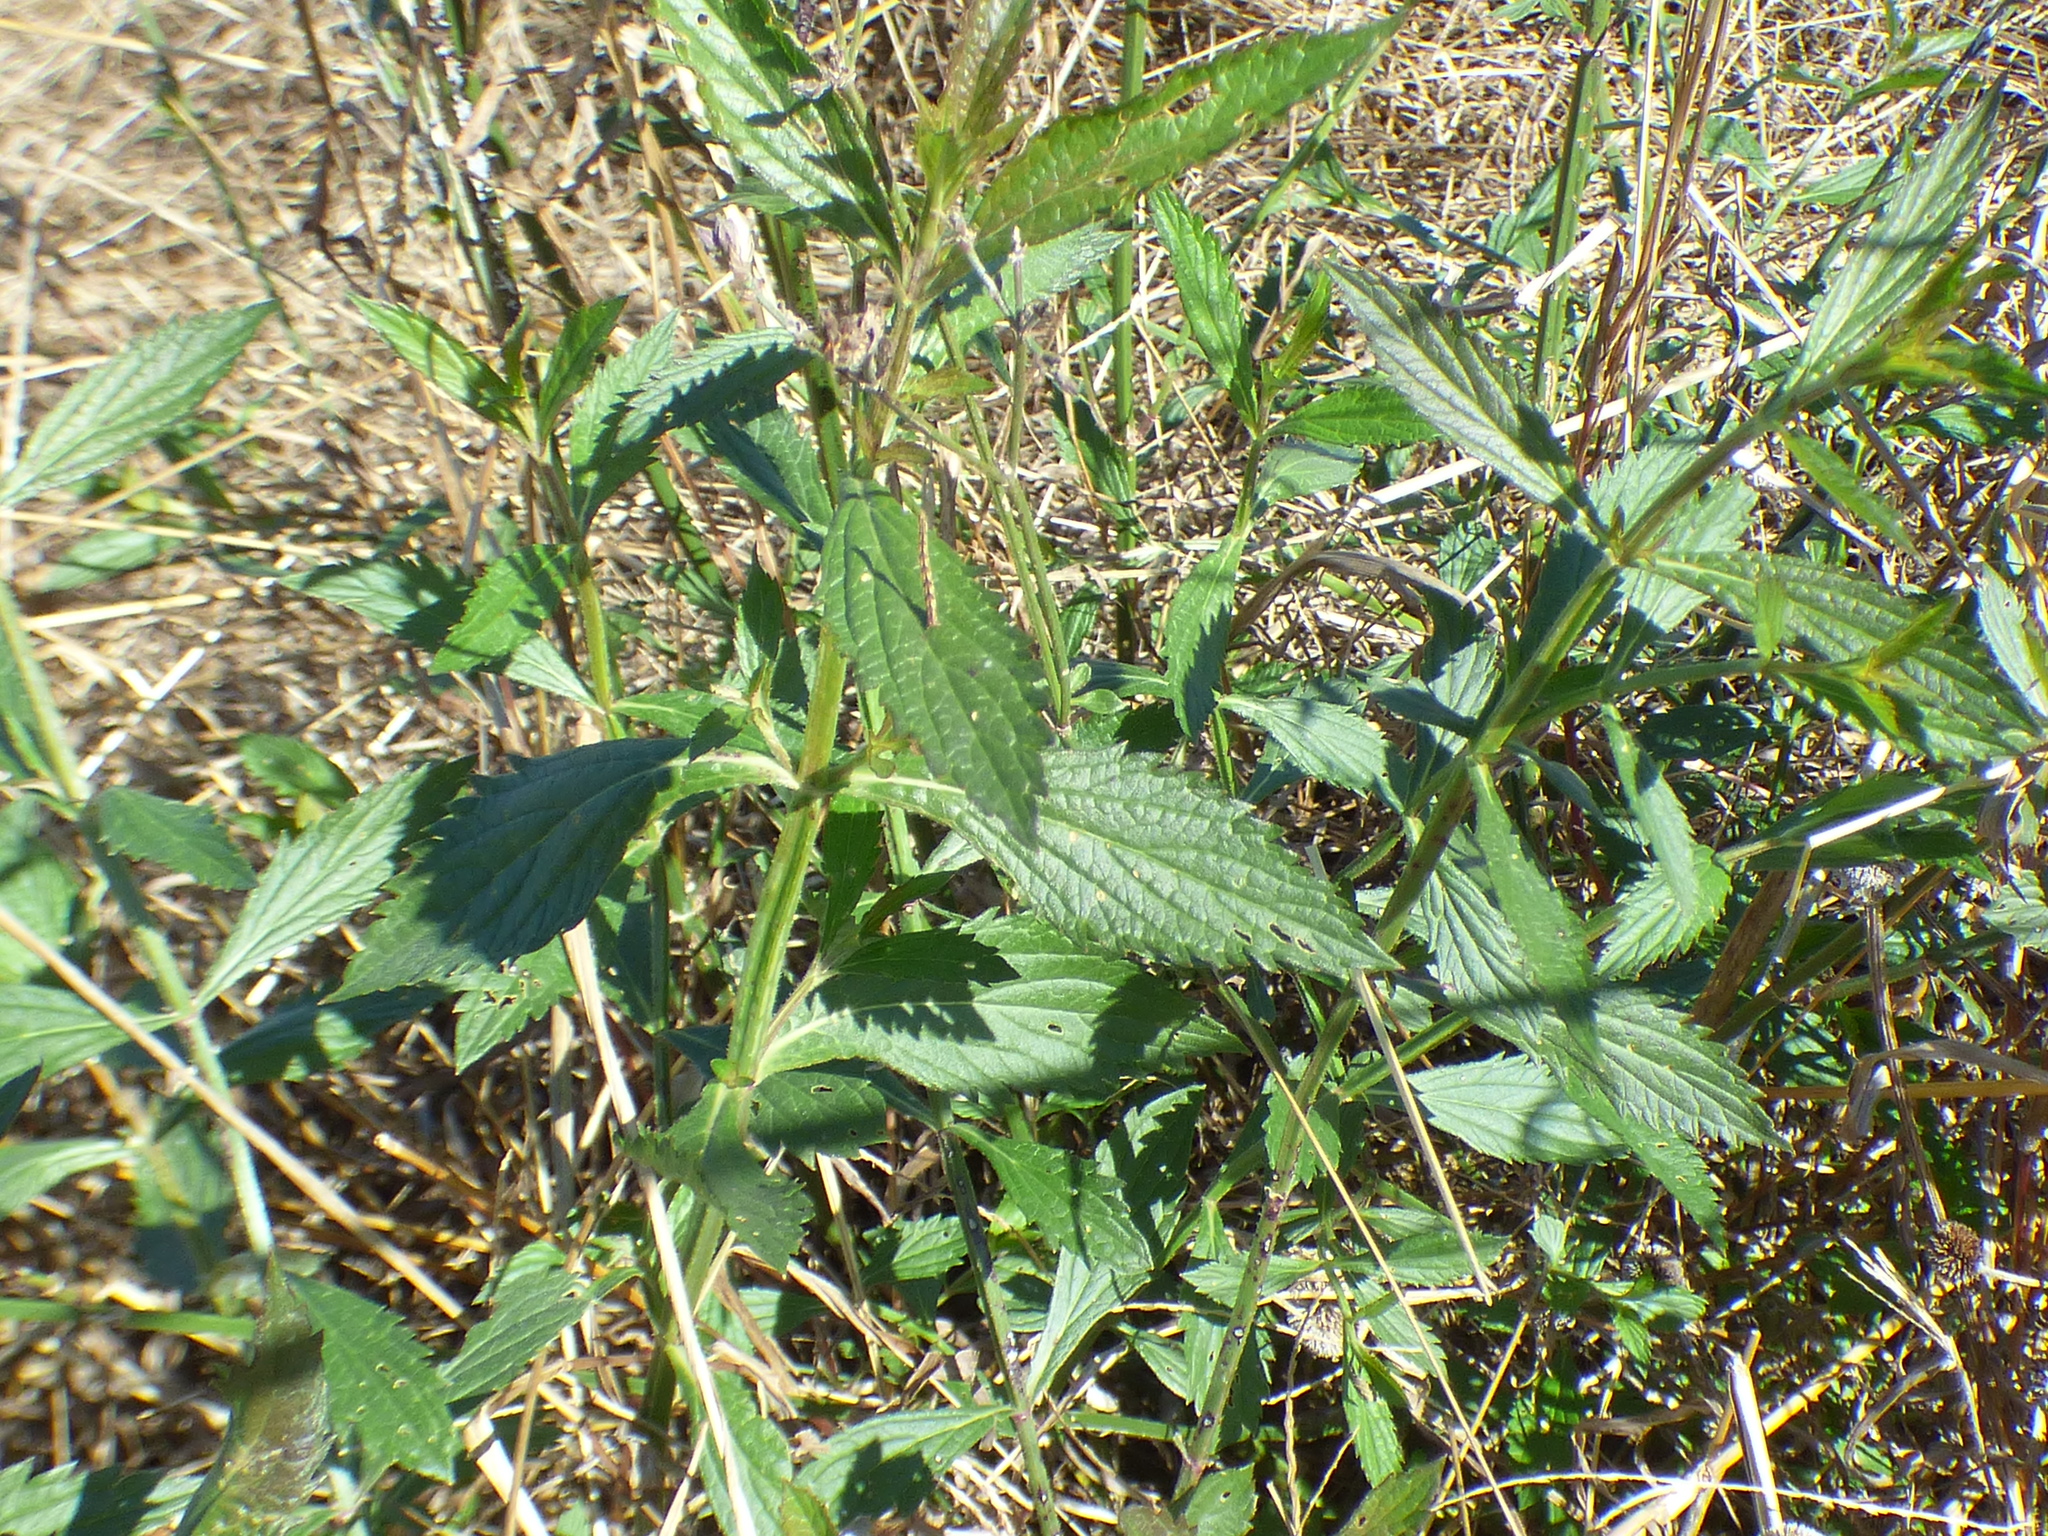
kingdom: Plantae
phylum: Tracheophyta
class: Magnoliopsida
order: Lamiales
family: Verbenaceae
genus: Verbena
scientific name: Verbena brasiliensis
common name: Brazilian vervain
